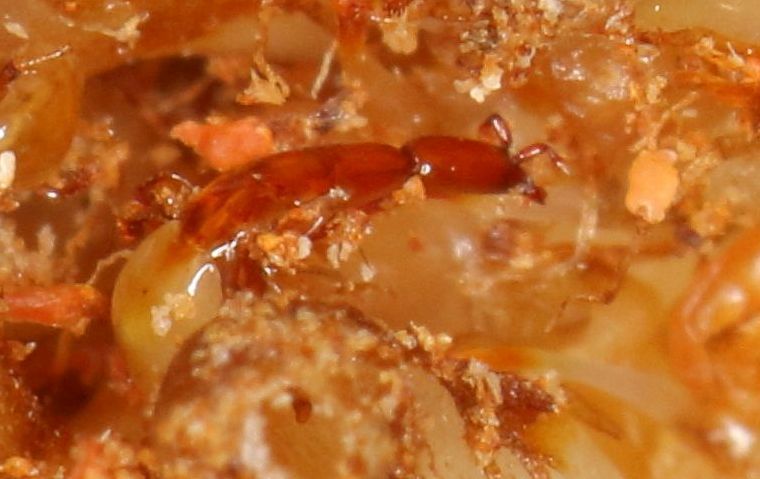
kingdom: Animalia
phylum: Arthropoda
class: Insecta
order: Hymenoptera
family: Agaonidae
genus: Ceratosolen
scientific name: Ceratosolen capensis
